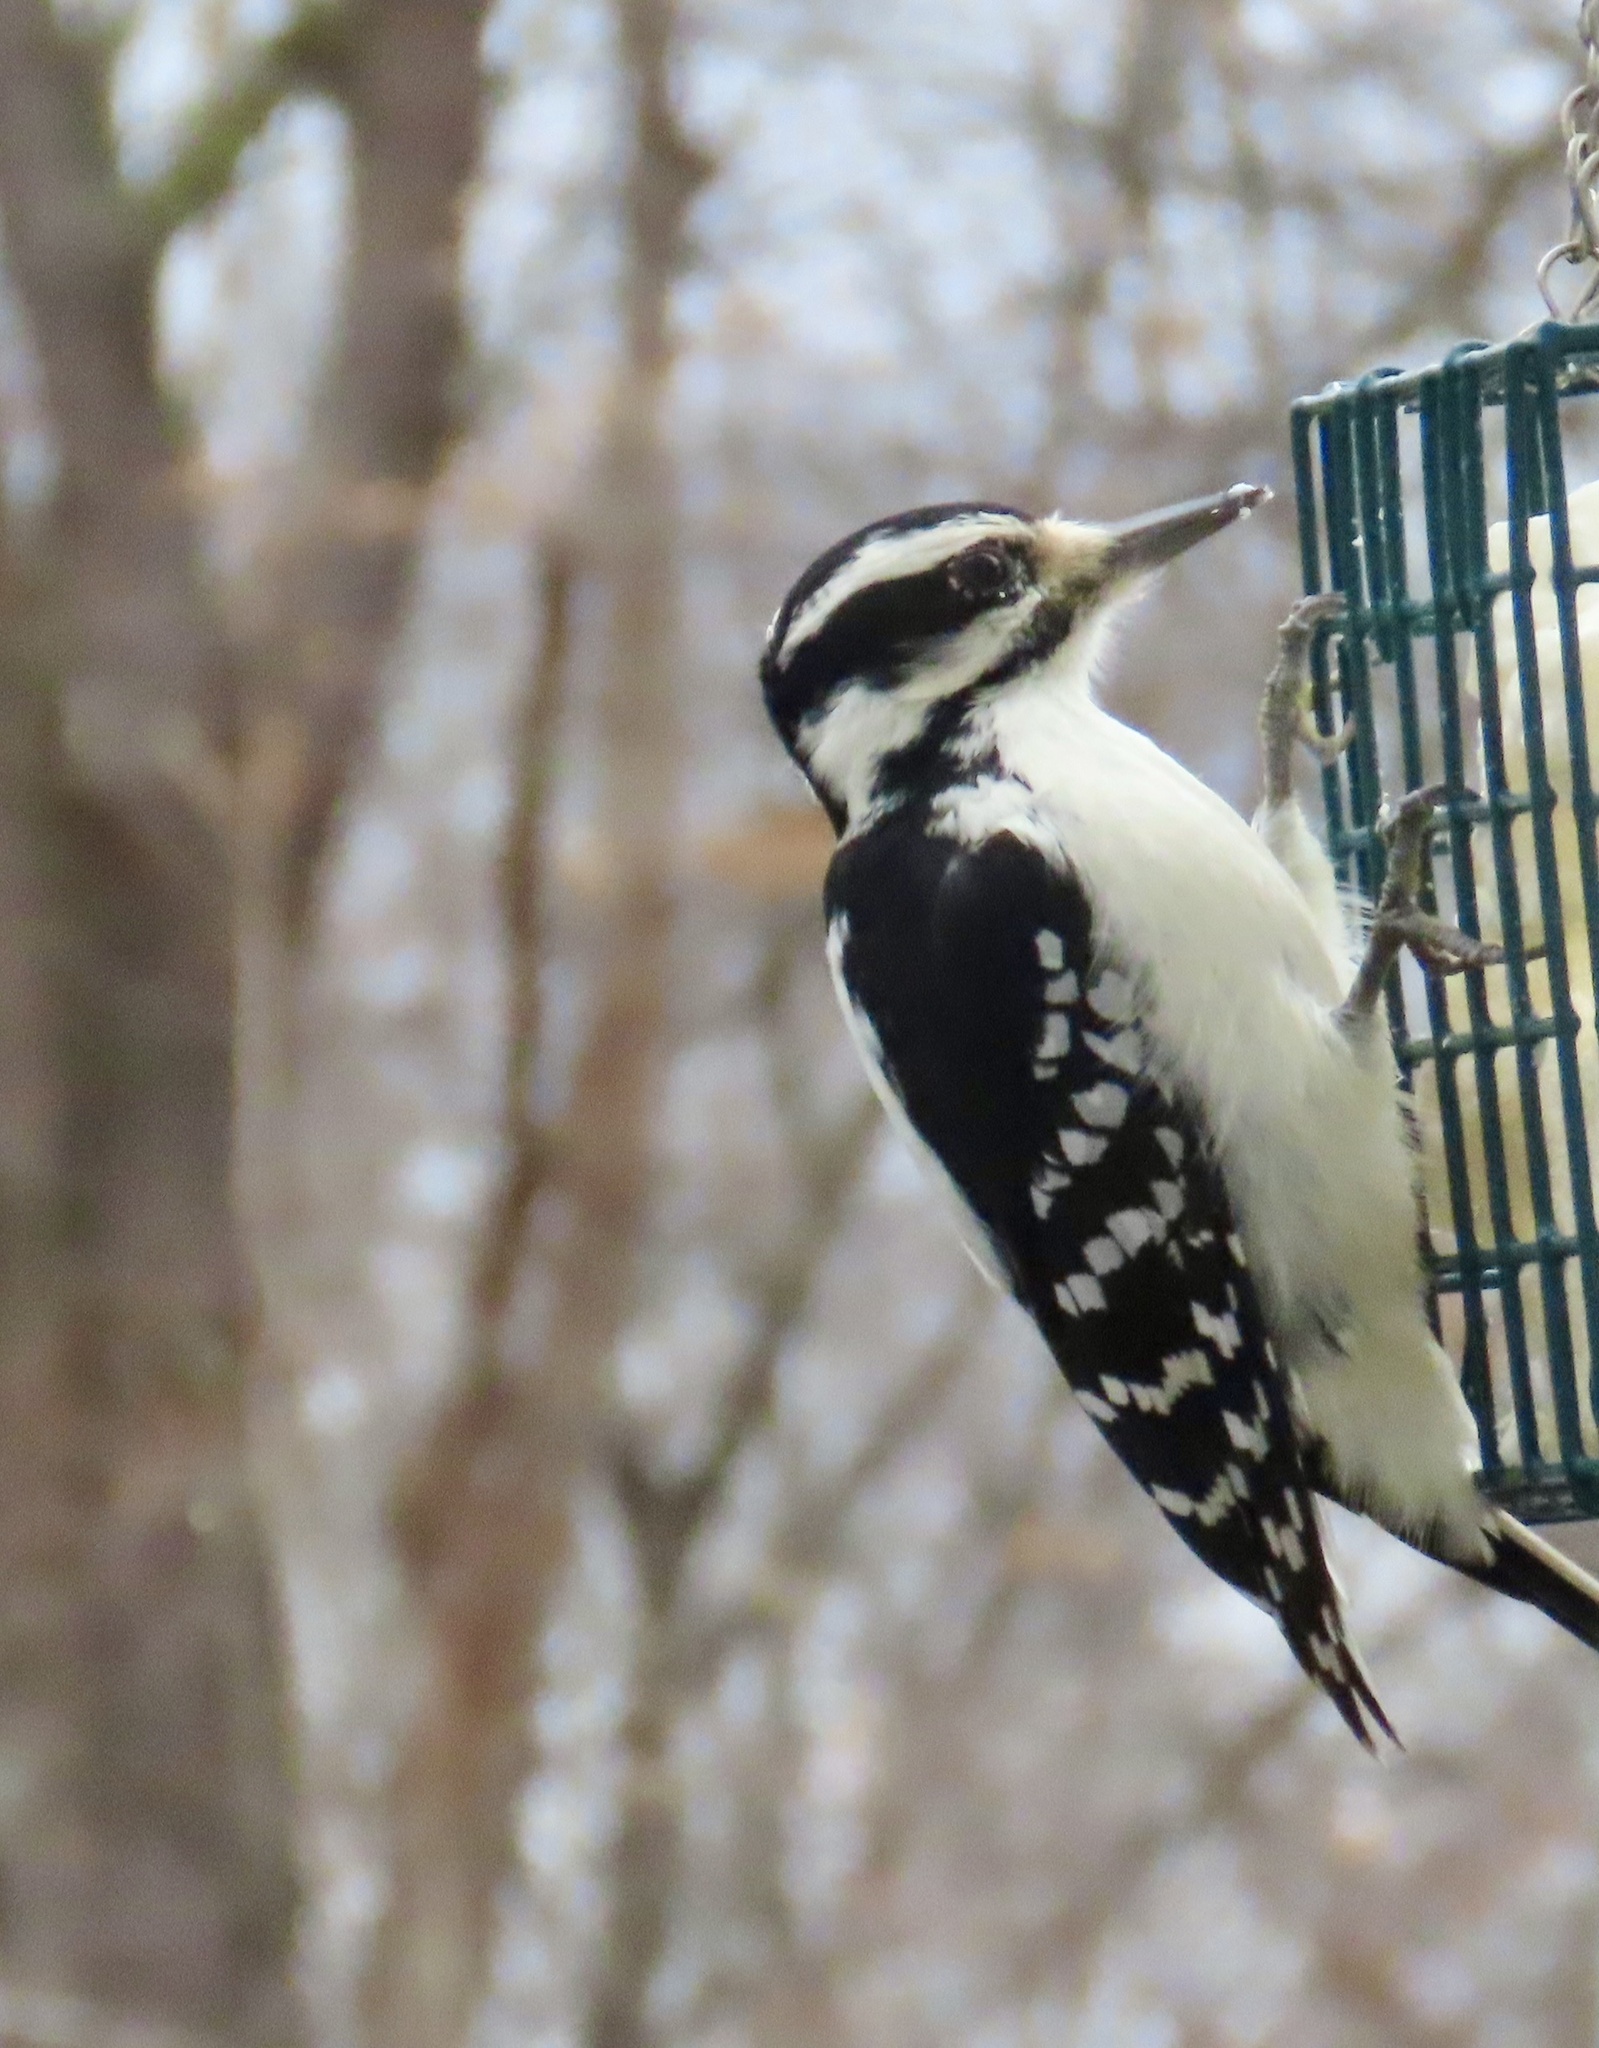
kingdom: Animalia
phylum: Chordata
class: Aves
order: Piciformes
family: Picidae
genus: Leuconotopicus
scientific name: Leuconotopicus villosus
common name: Hairy woodpecker
